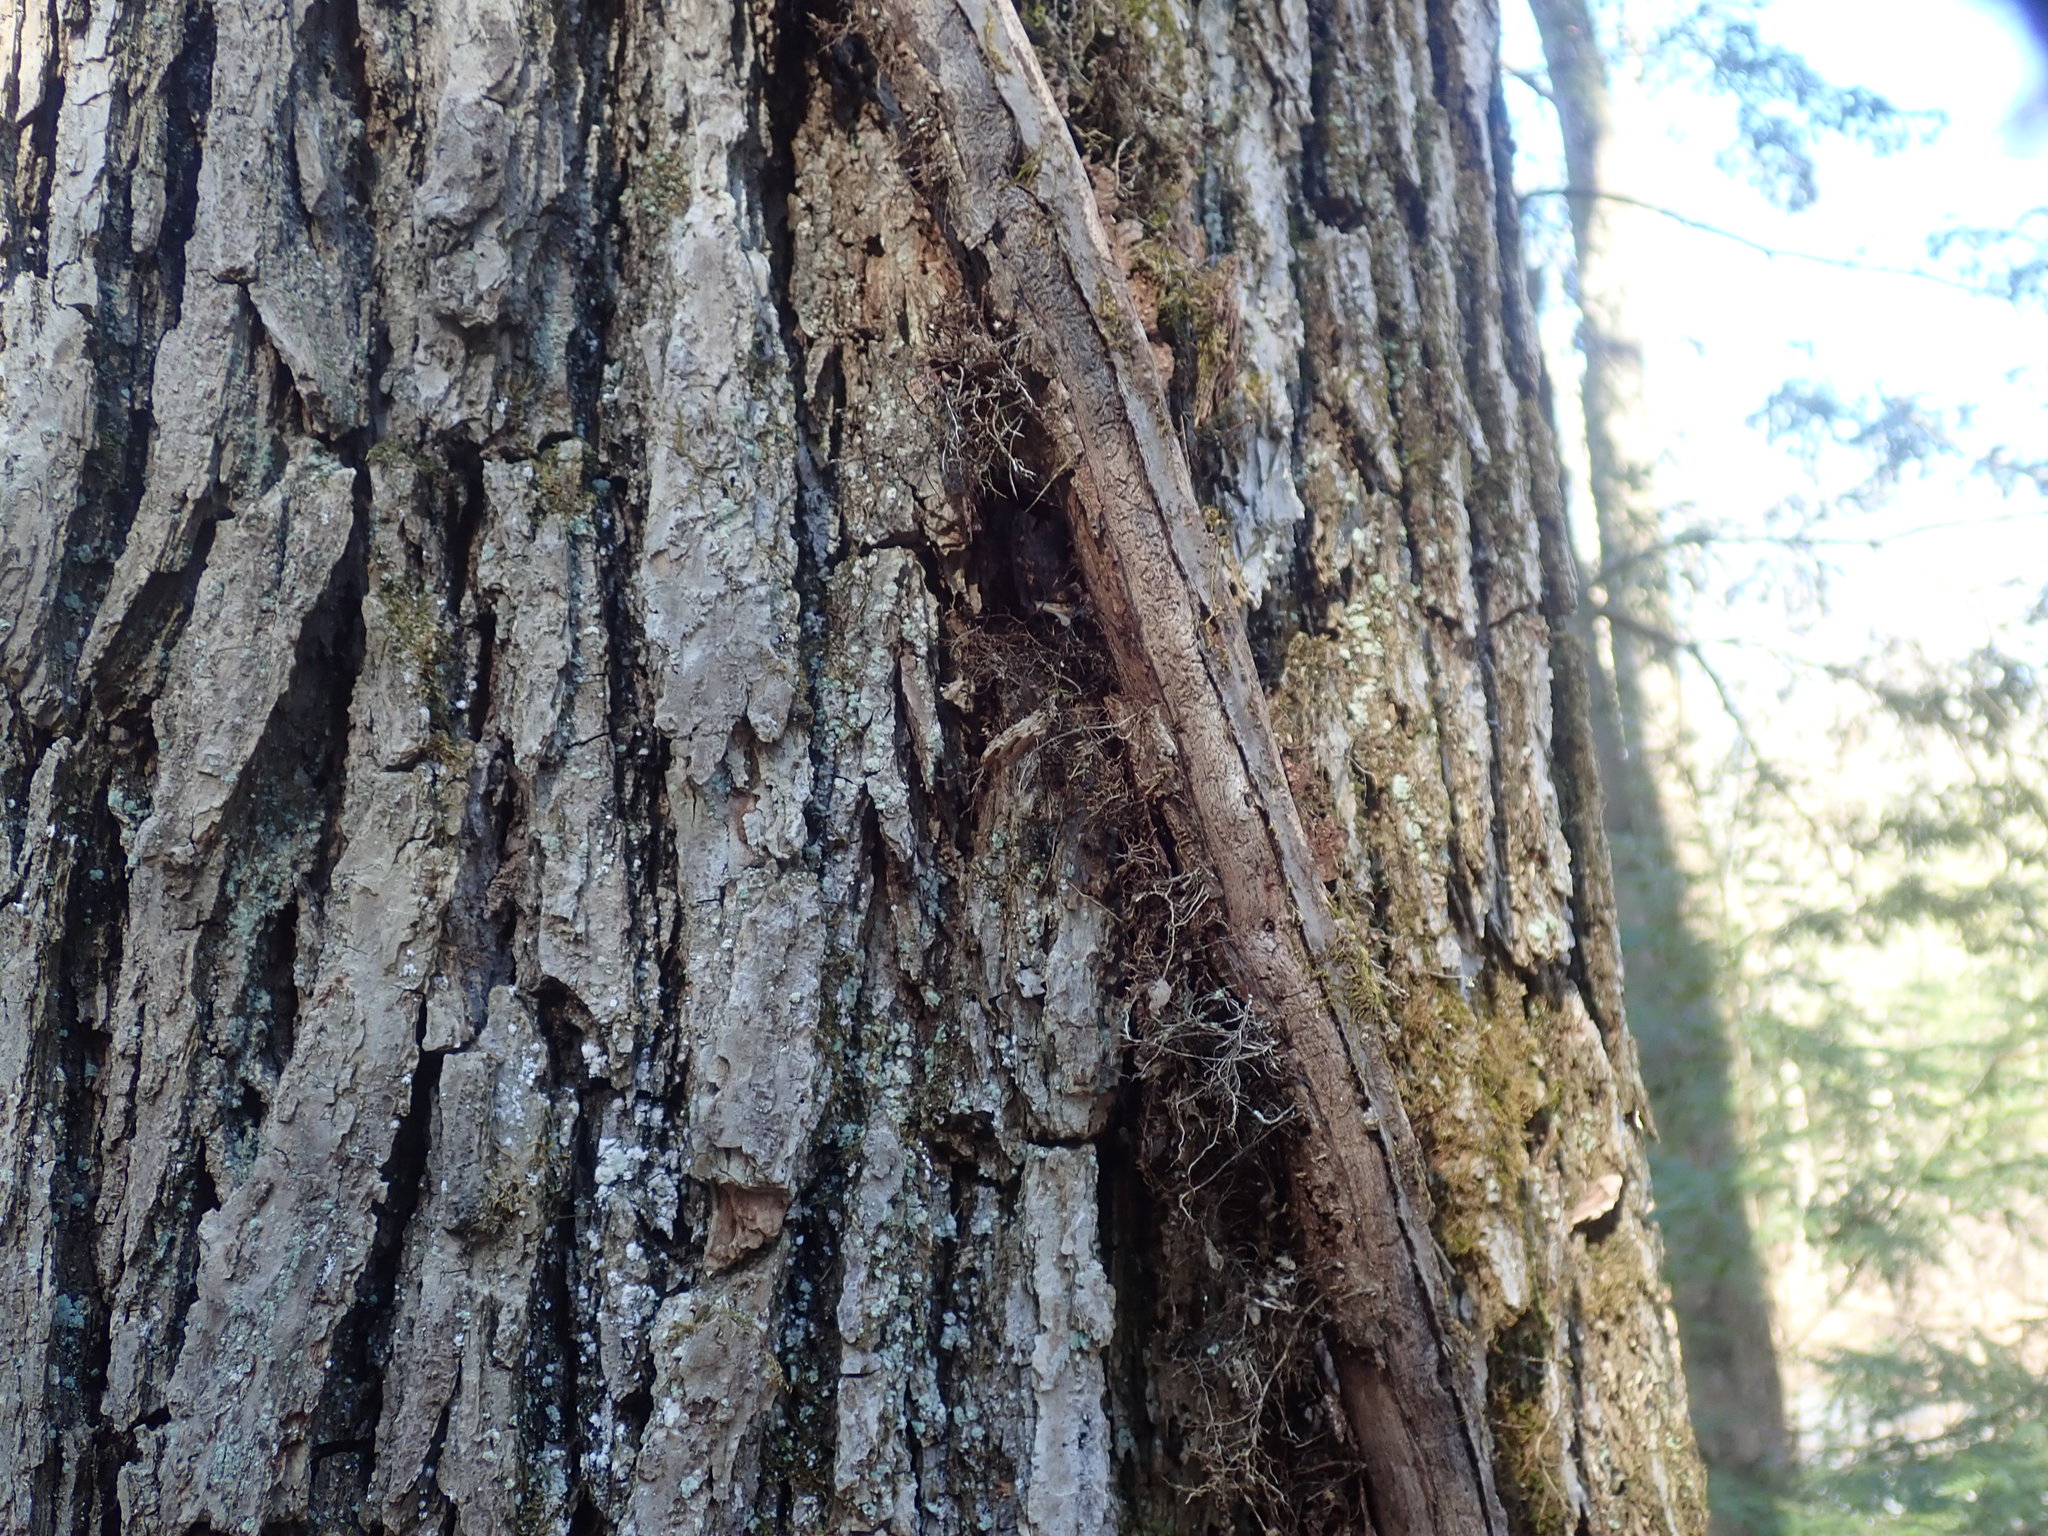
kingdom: Plantae
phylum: Tracheophyta
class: Magnoliopsida
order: Sapindales
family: Anacardiaceae
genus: Toxicodendron
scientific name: Toxicodendron radicans
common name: Poison ivy
